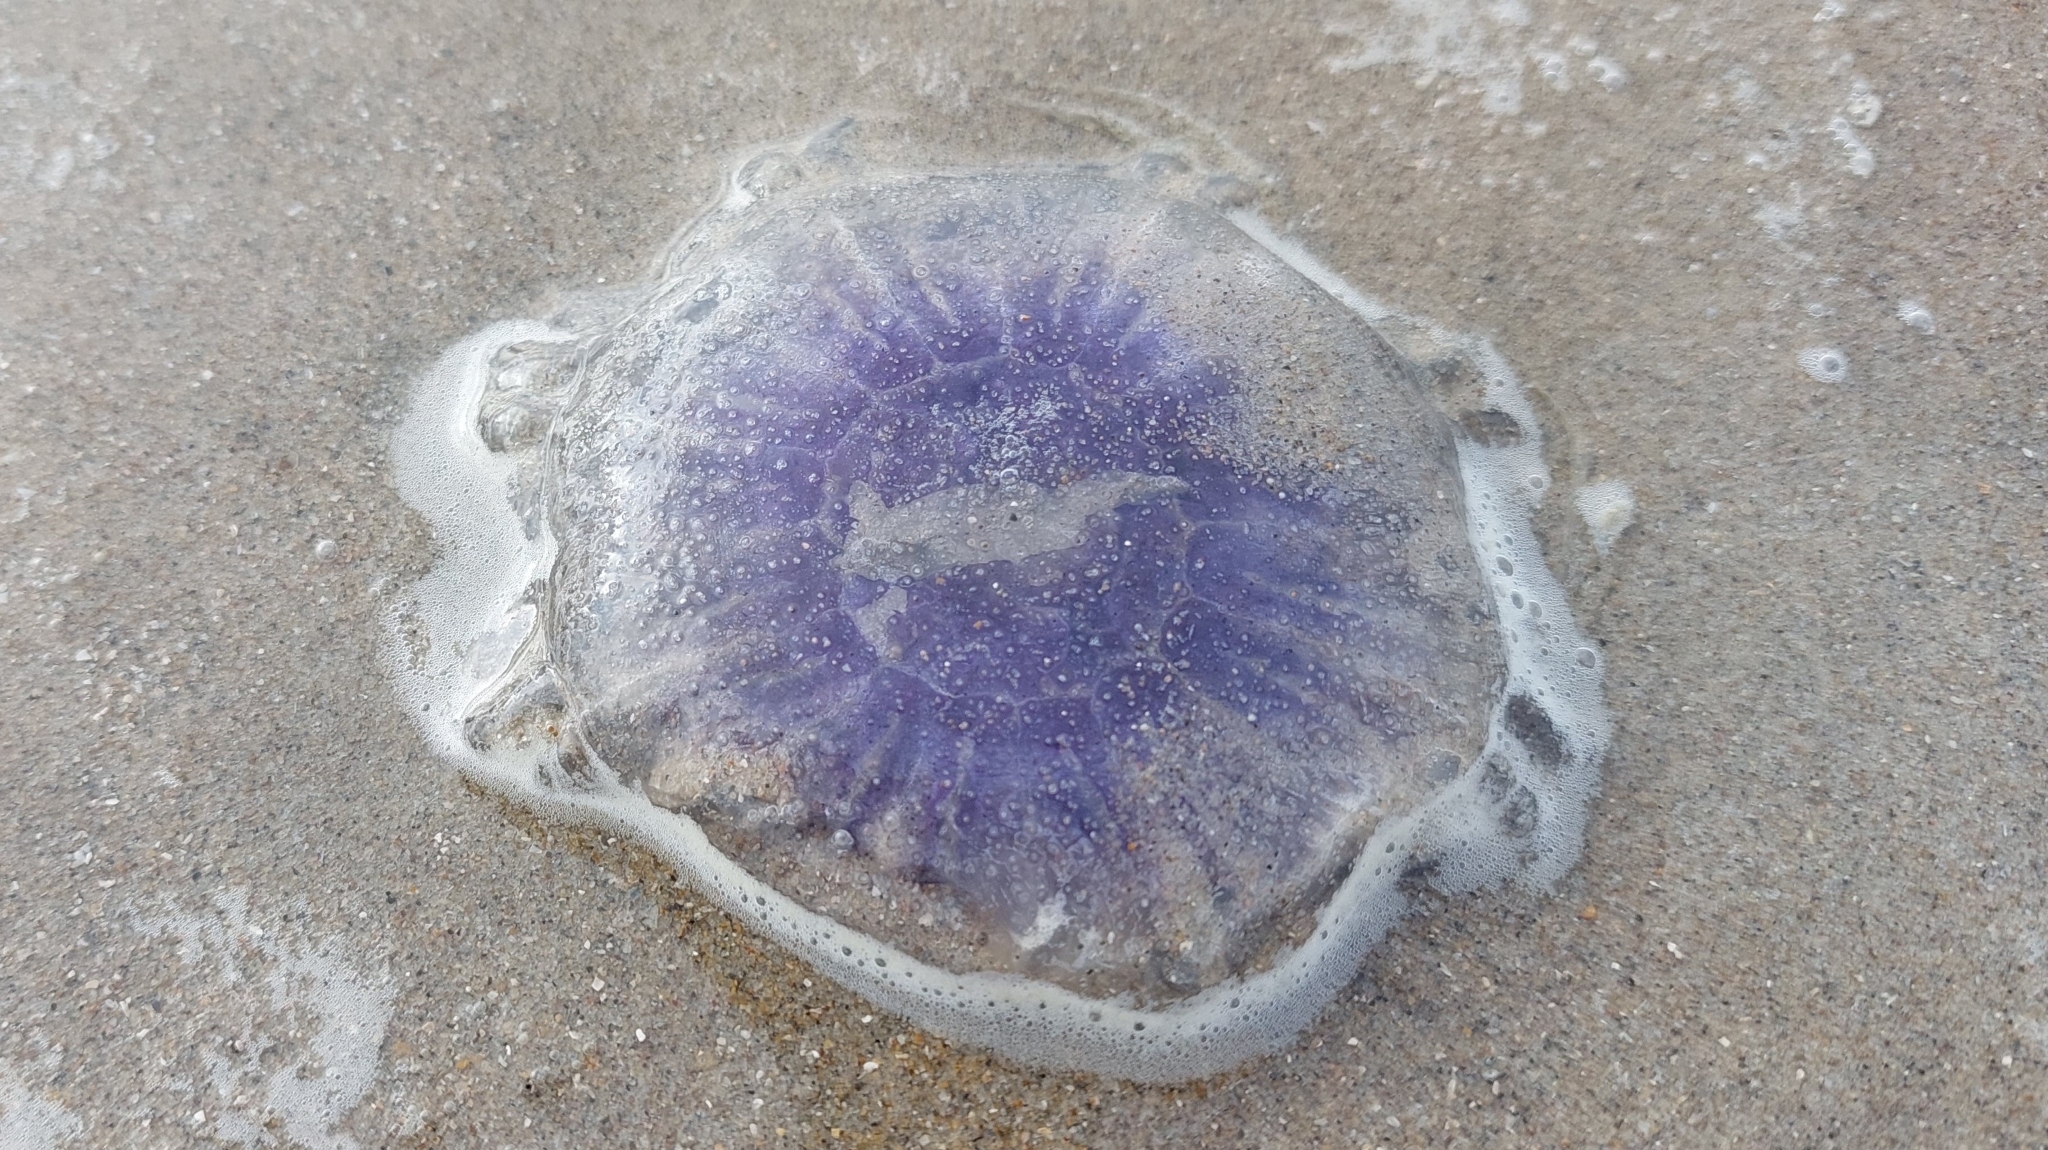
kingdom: Animalia
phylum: Cnidaria
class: Scyphozoa
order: Semaeostomeae
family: Cyaneidae
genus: Cyanea
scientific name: Cyanea lamarckii
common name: Blue jellyfish
